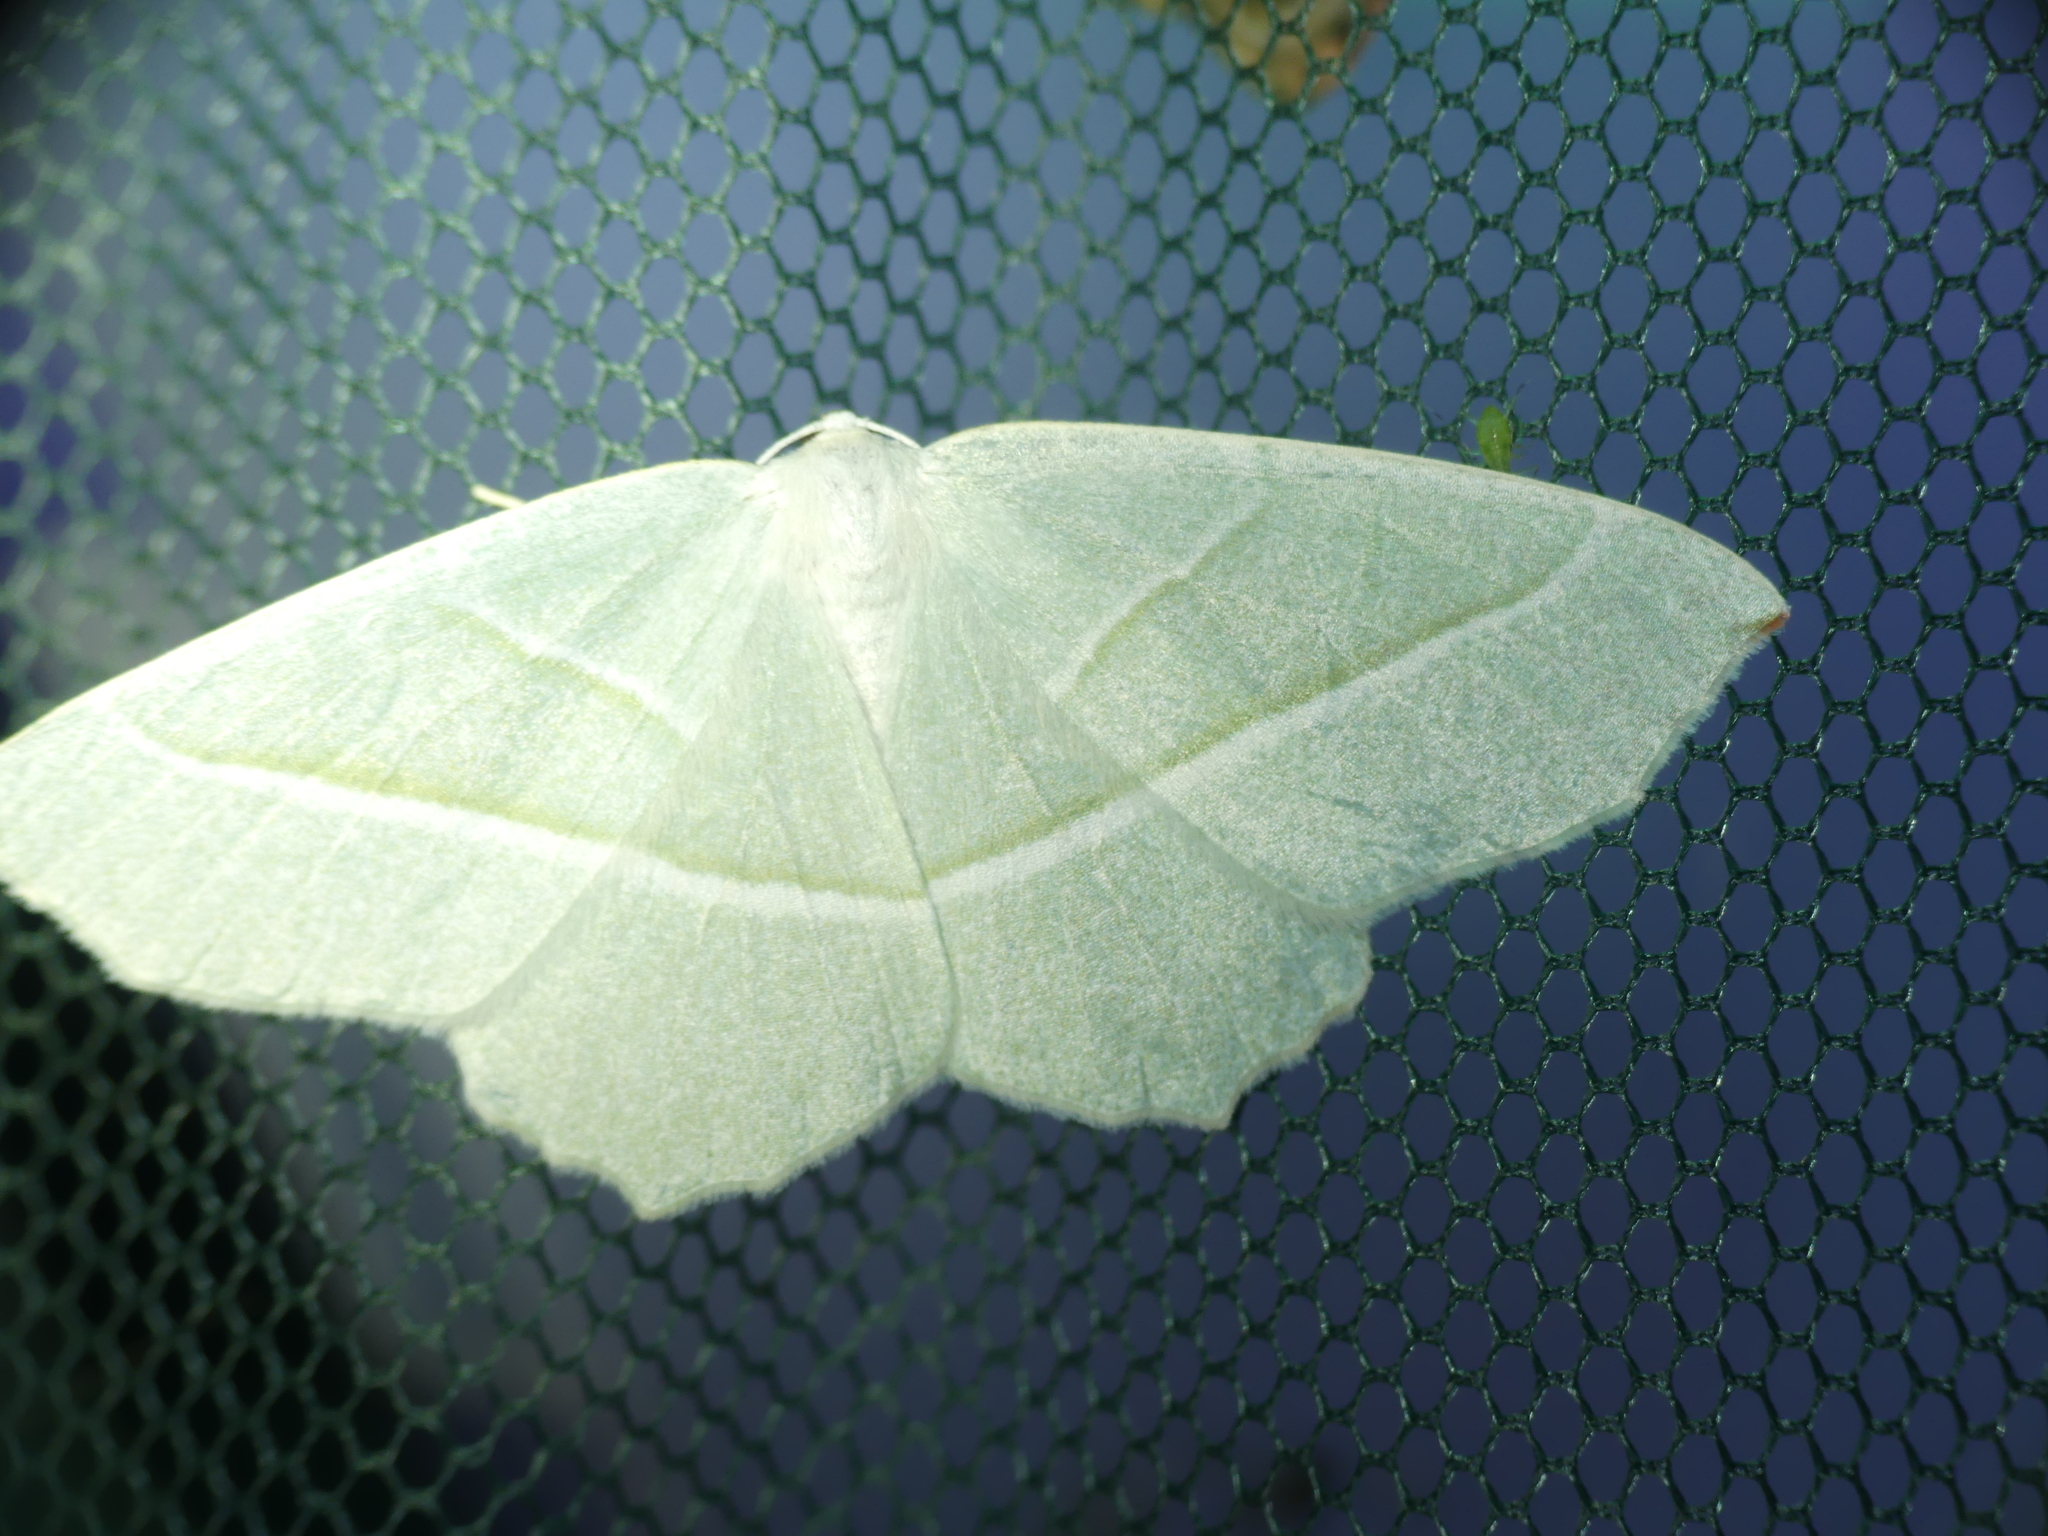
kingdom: Animalia
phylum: Arthropoda
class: Insecta
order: Lepidoptera
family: Geometridae
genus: Campaea
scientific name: Campaea margaritaria
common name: Light emerald
